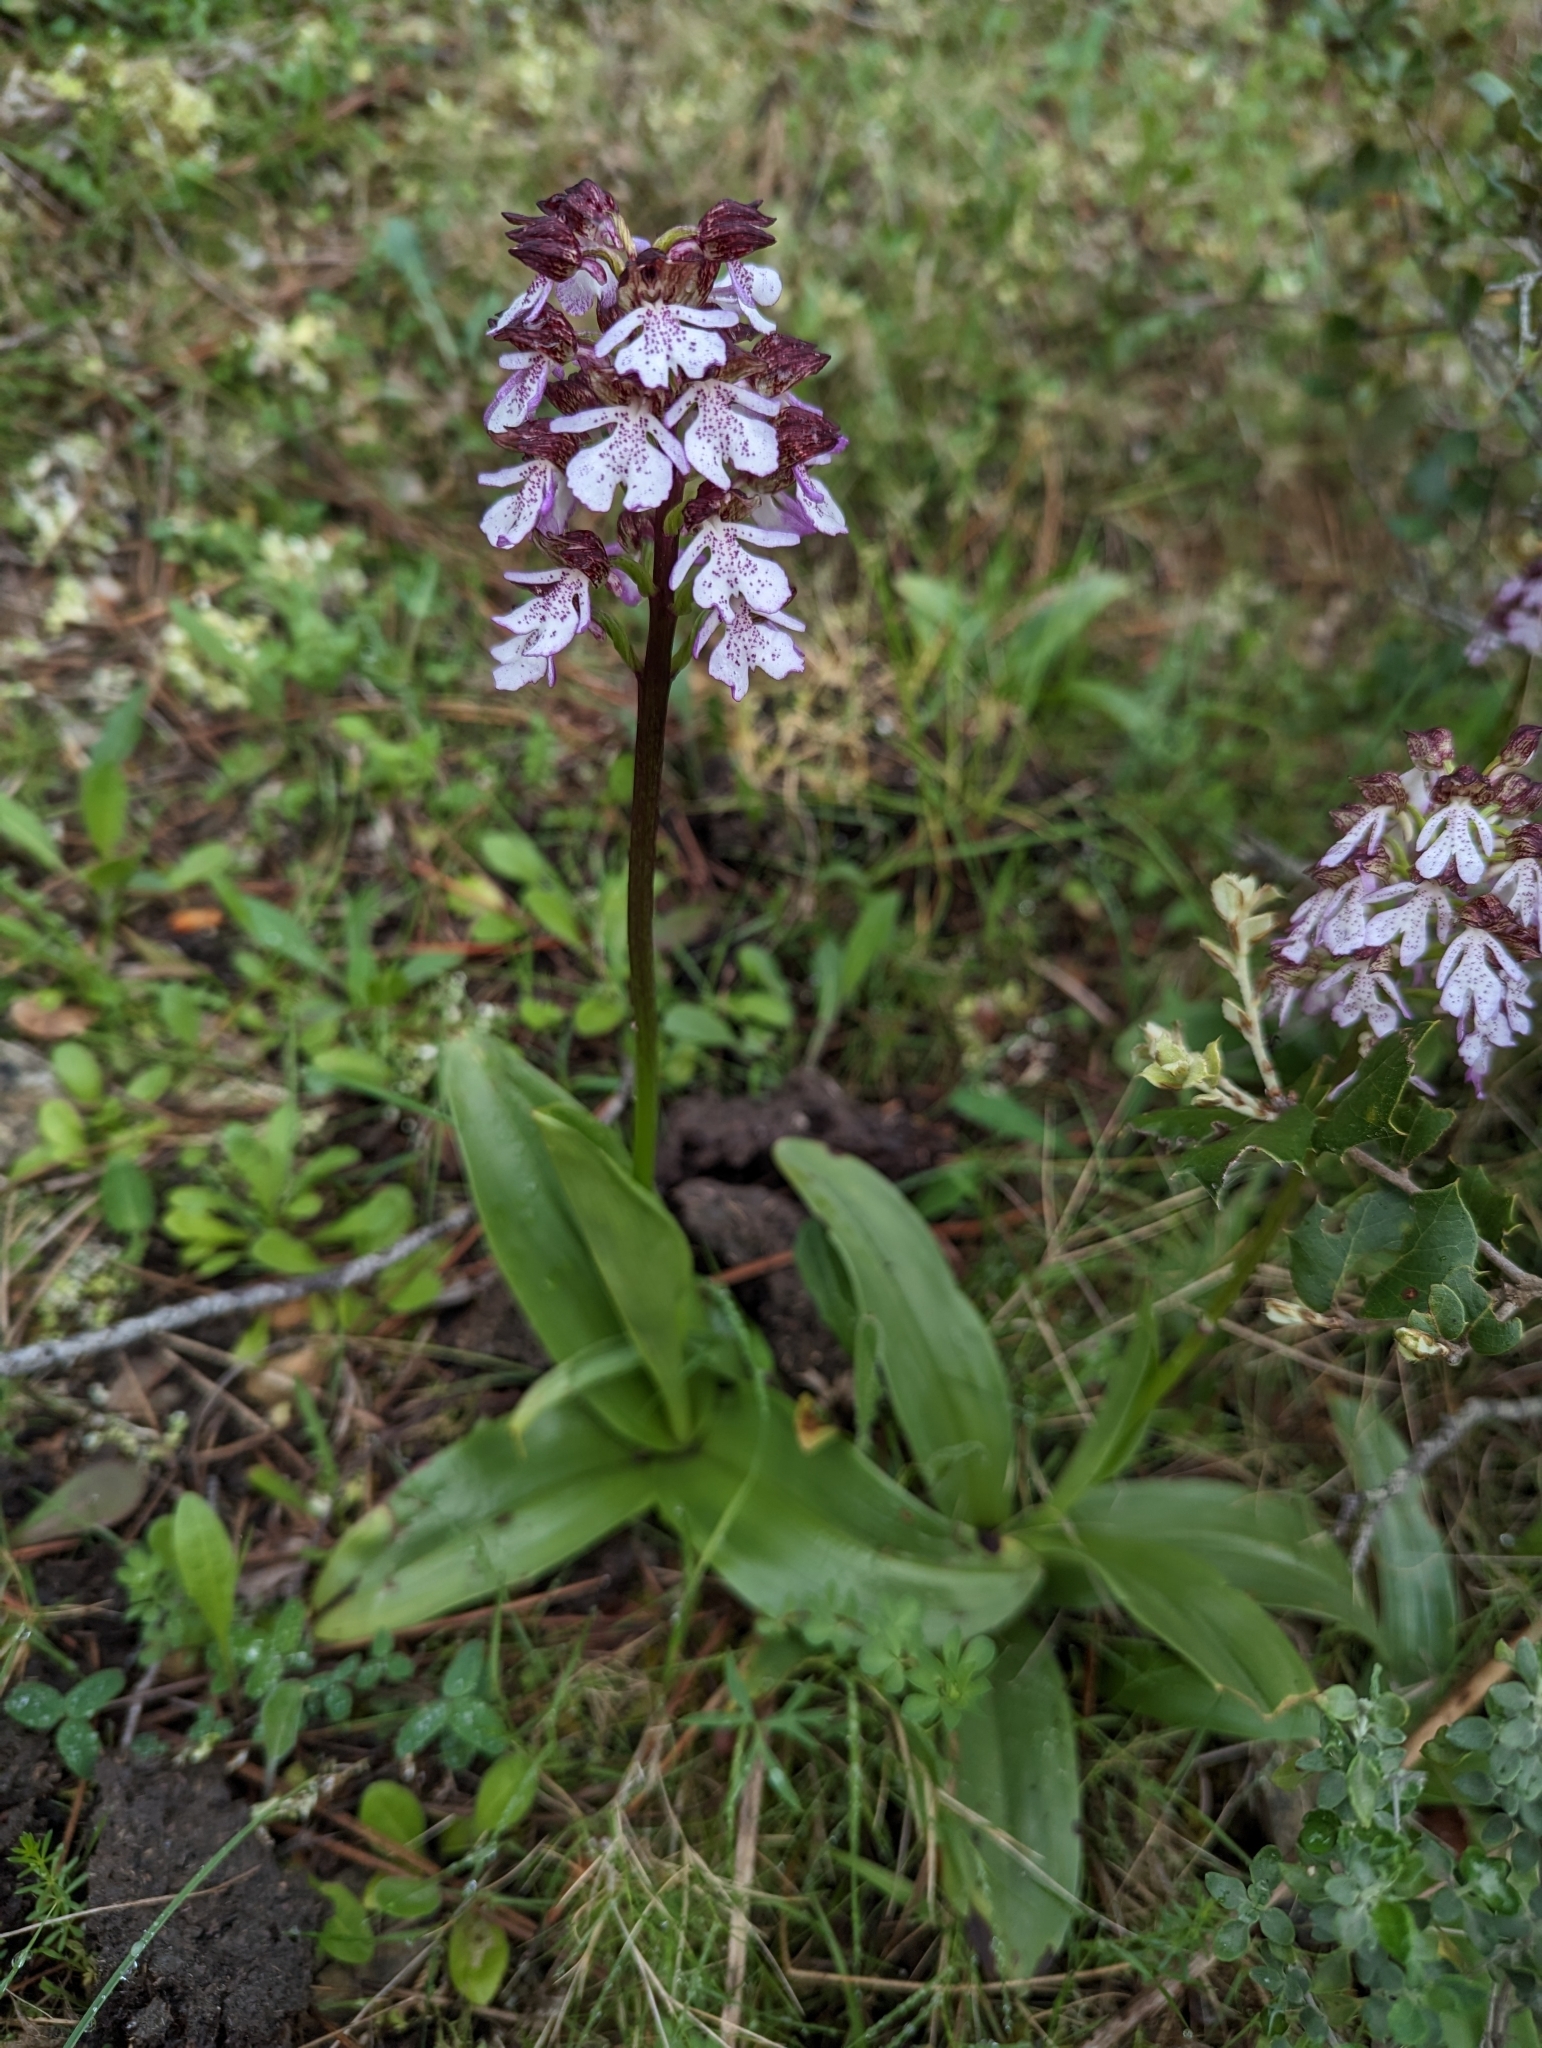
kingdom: Plantae
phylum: Tracheophyta
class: Liliopsida
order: Asparagales
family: Orchidaceae
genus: Orchis
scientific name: Orchis purpurea
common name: Lady orchid
